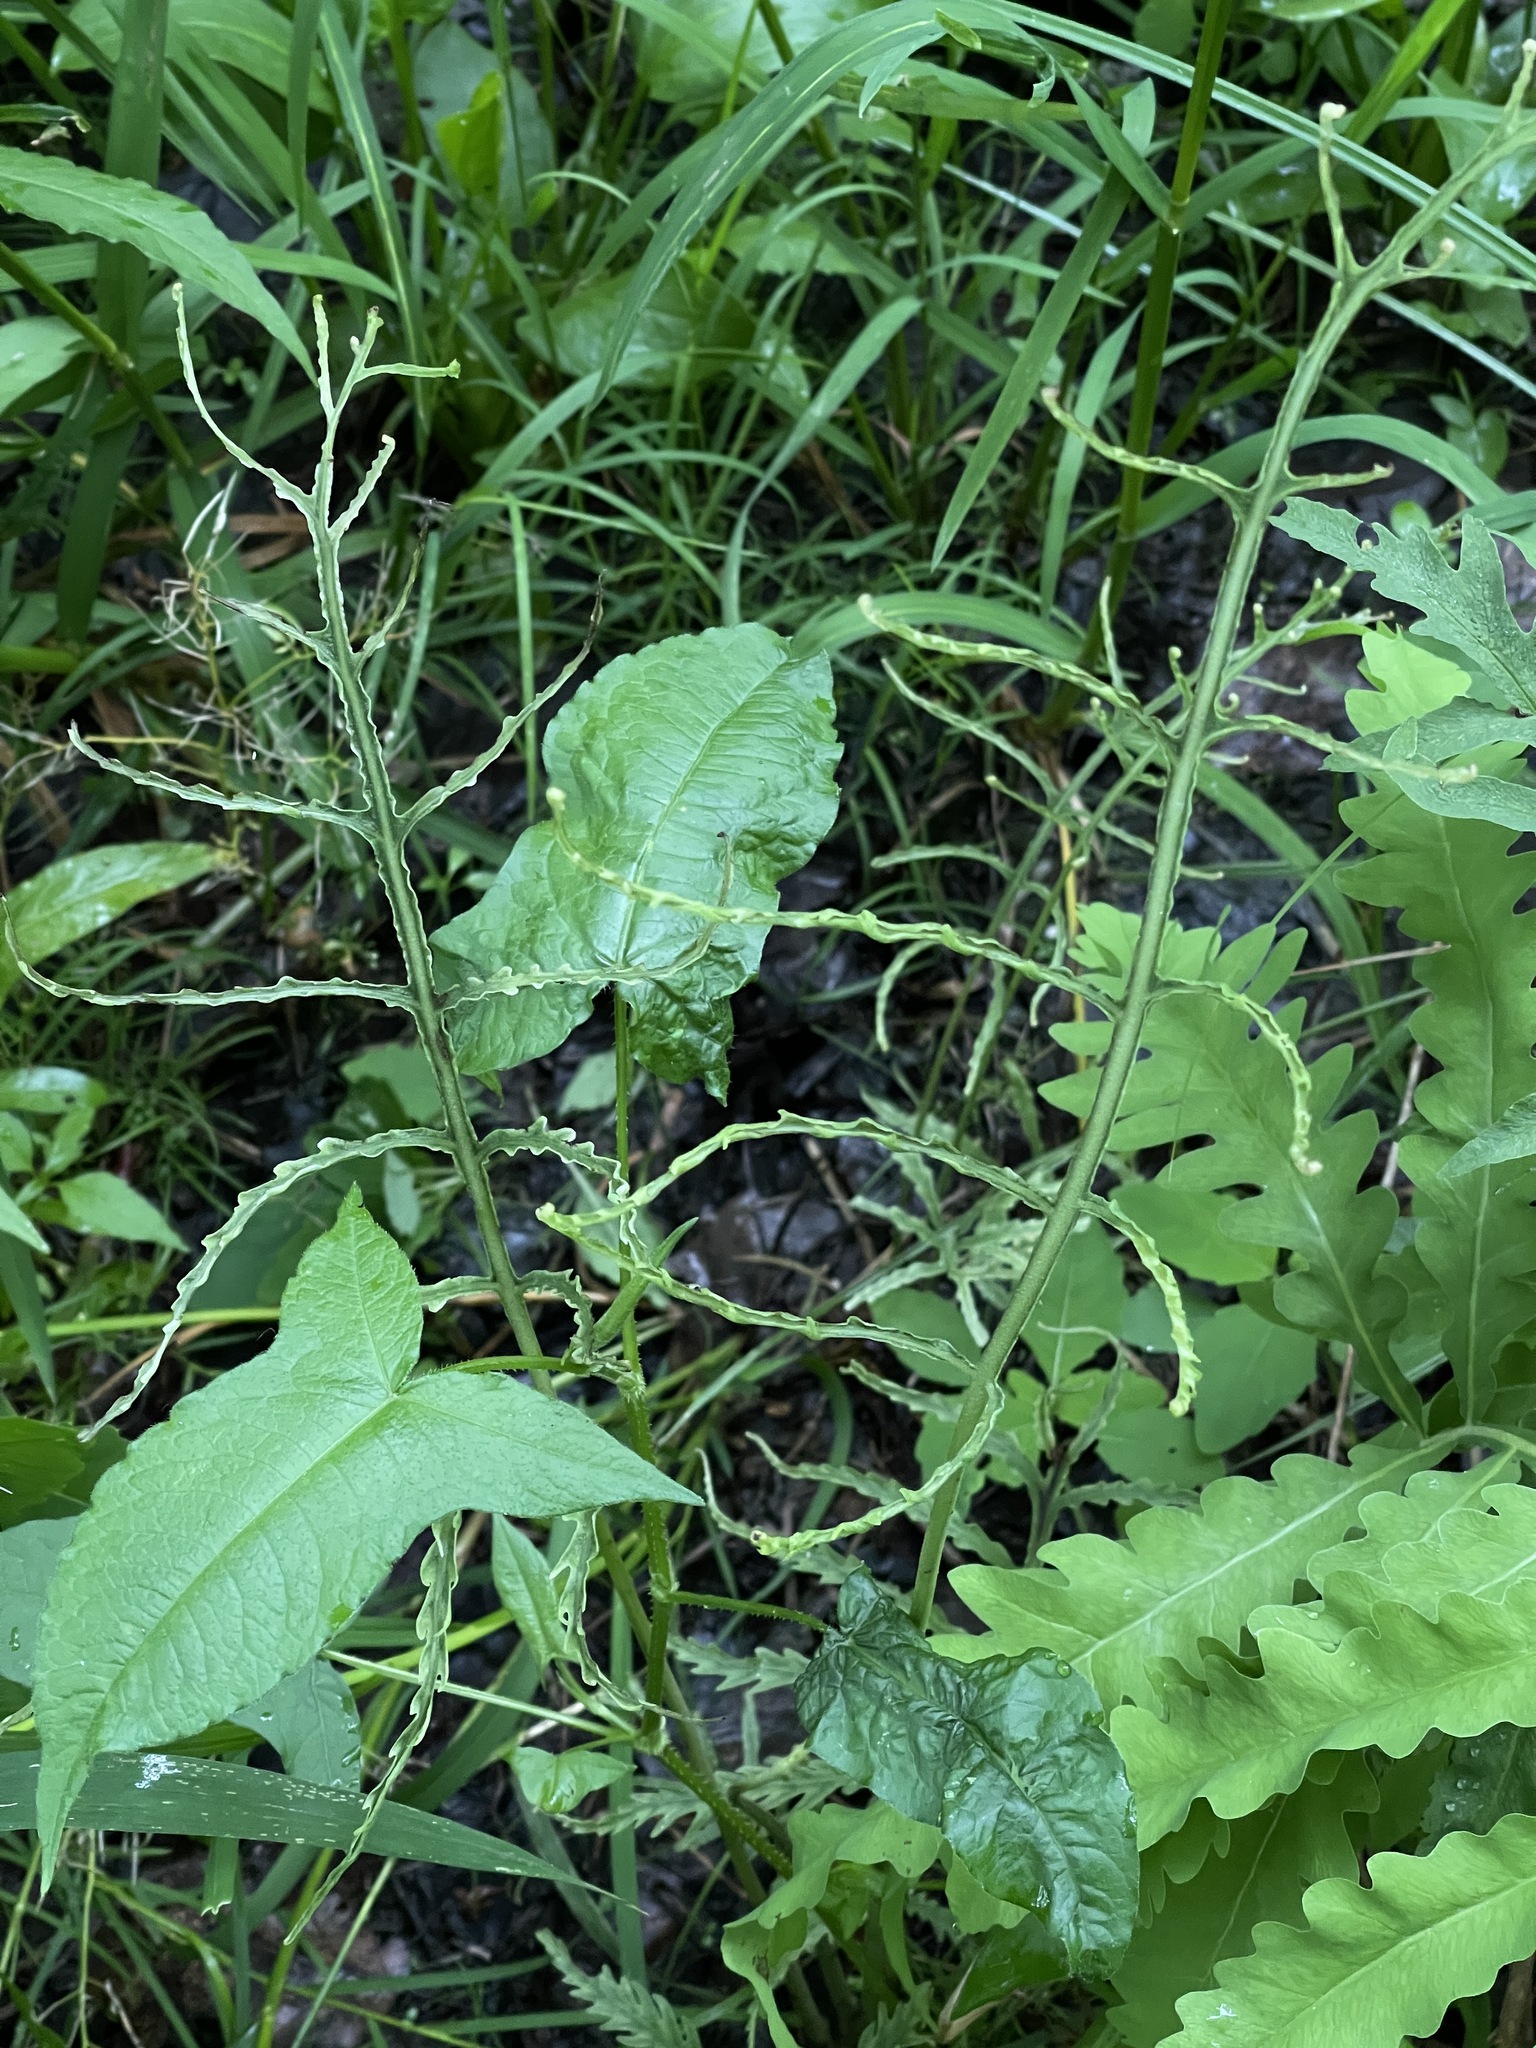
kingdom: Plantae
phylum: Tracheophyta
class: Magnoliopsida
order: Caryophyllales
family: Polygonaceae
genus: Persicaria
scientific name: Persicaria arifolia
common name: Halberd-leaved tear-thumb
